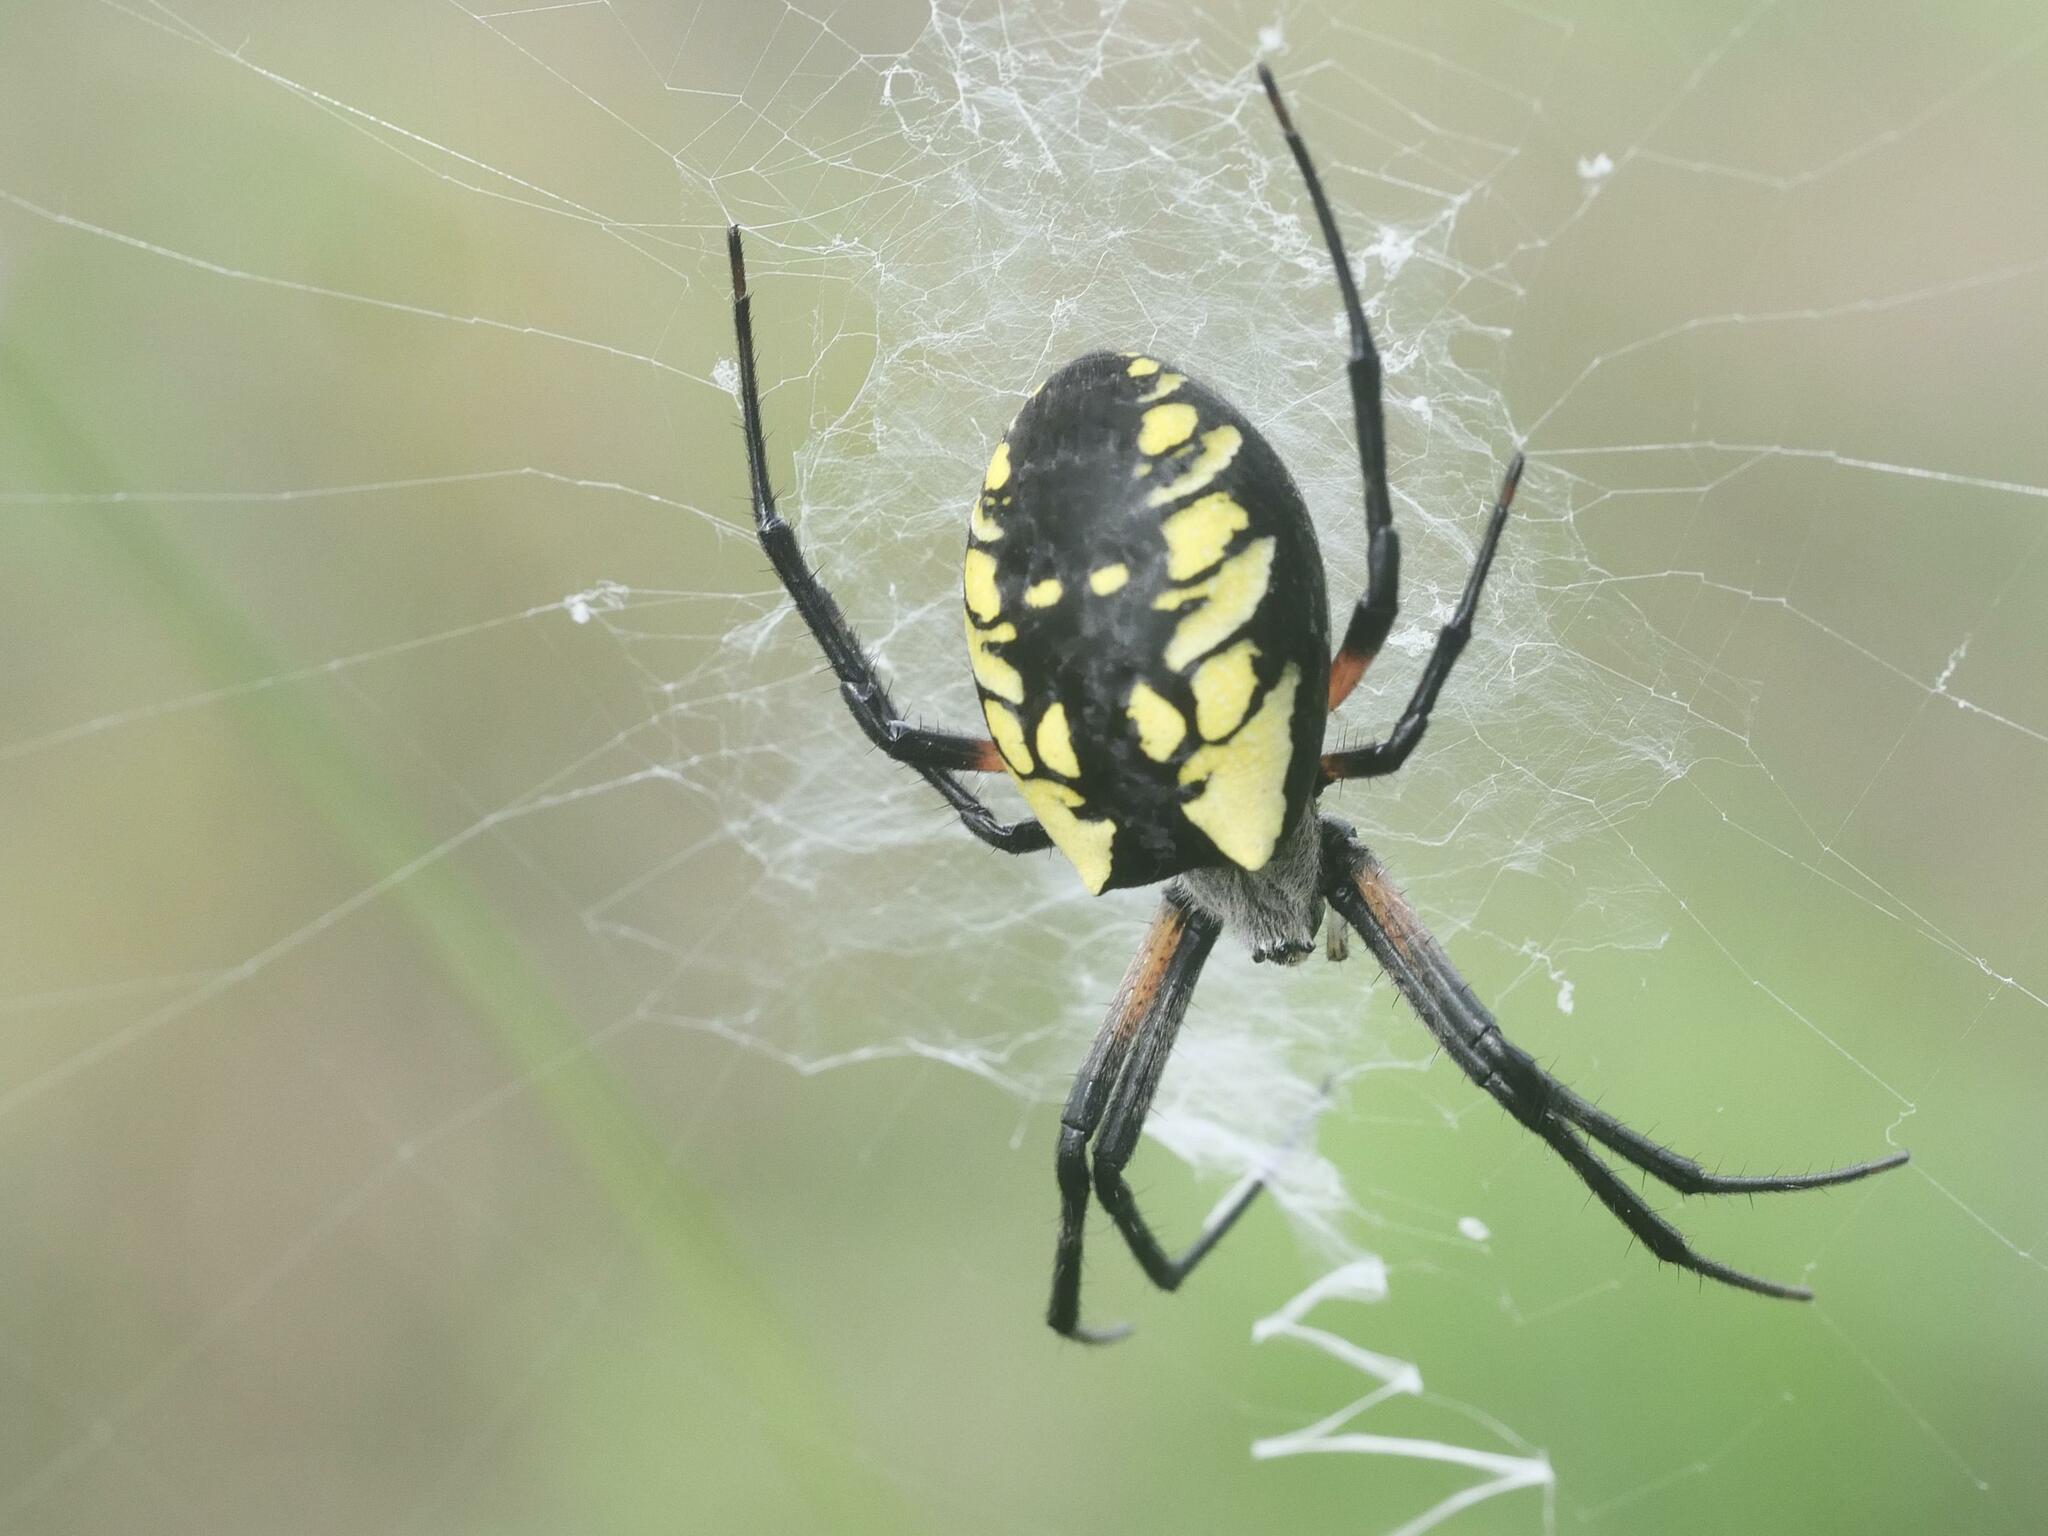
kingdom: Animalia
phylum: Arthropoda
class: Arachnida
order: Araneae
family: Araneidae
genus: Argiope
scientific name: Argiope aurantia
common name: Orb weavers
